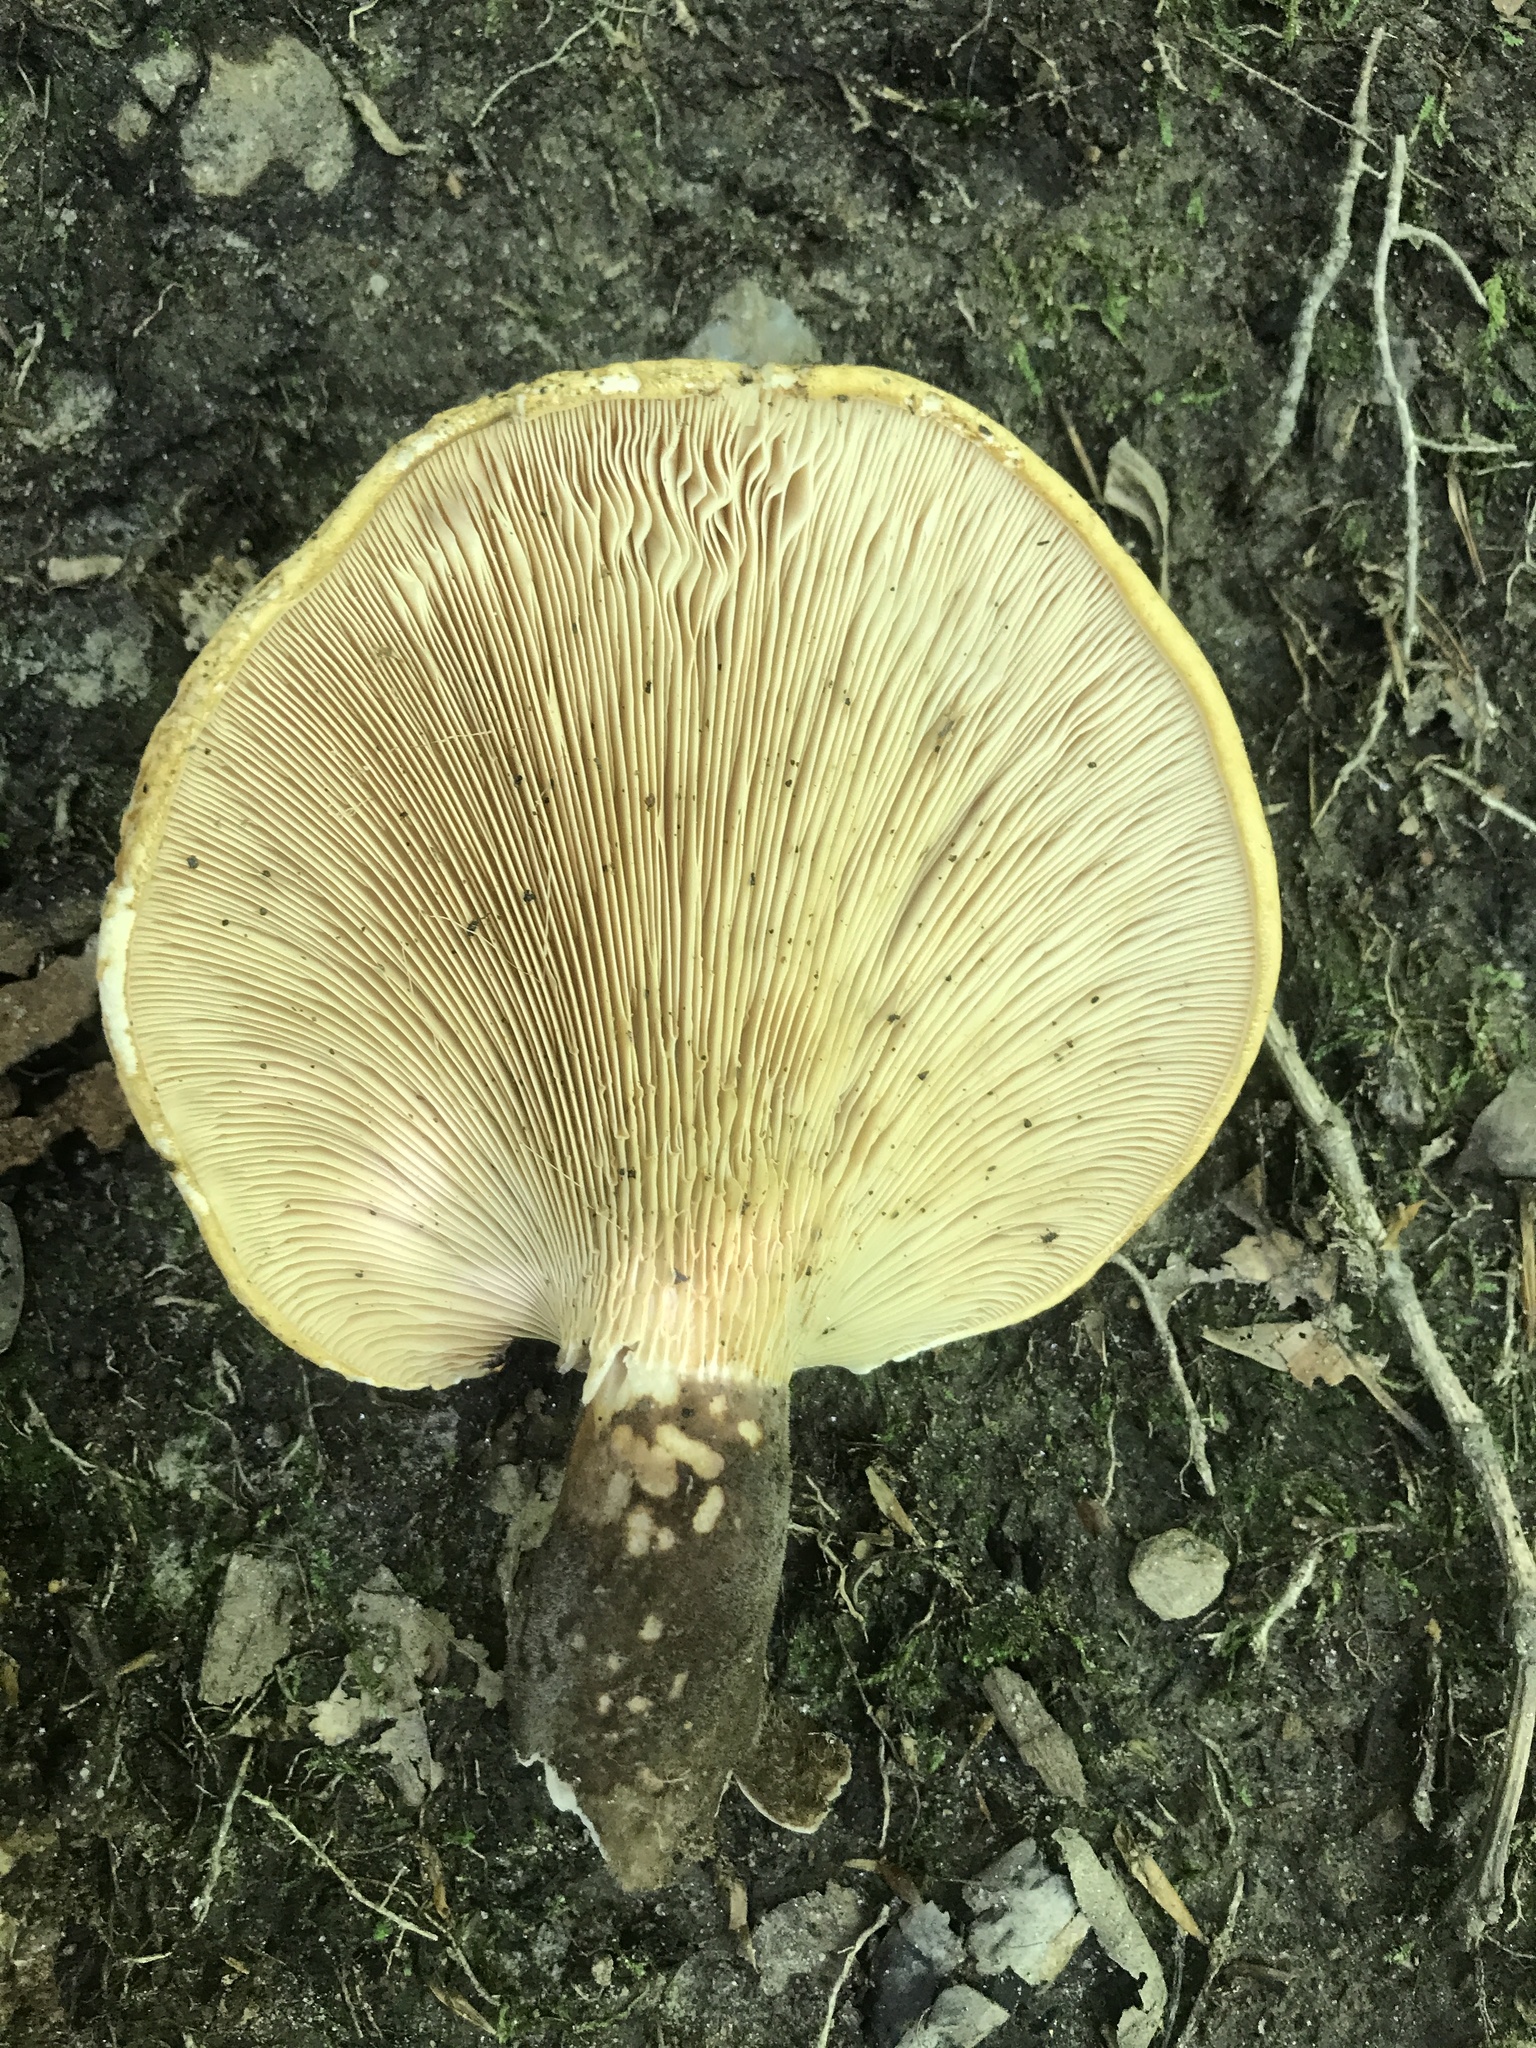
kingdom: Fungi
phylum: Basidiomycota
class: Agaricomycetes
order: Boletales
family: Tapinellaceae
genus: Tapinella
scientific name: Tapinella atrotomentosa
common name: Velvet rollrim
